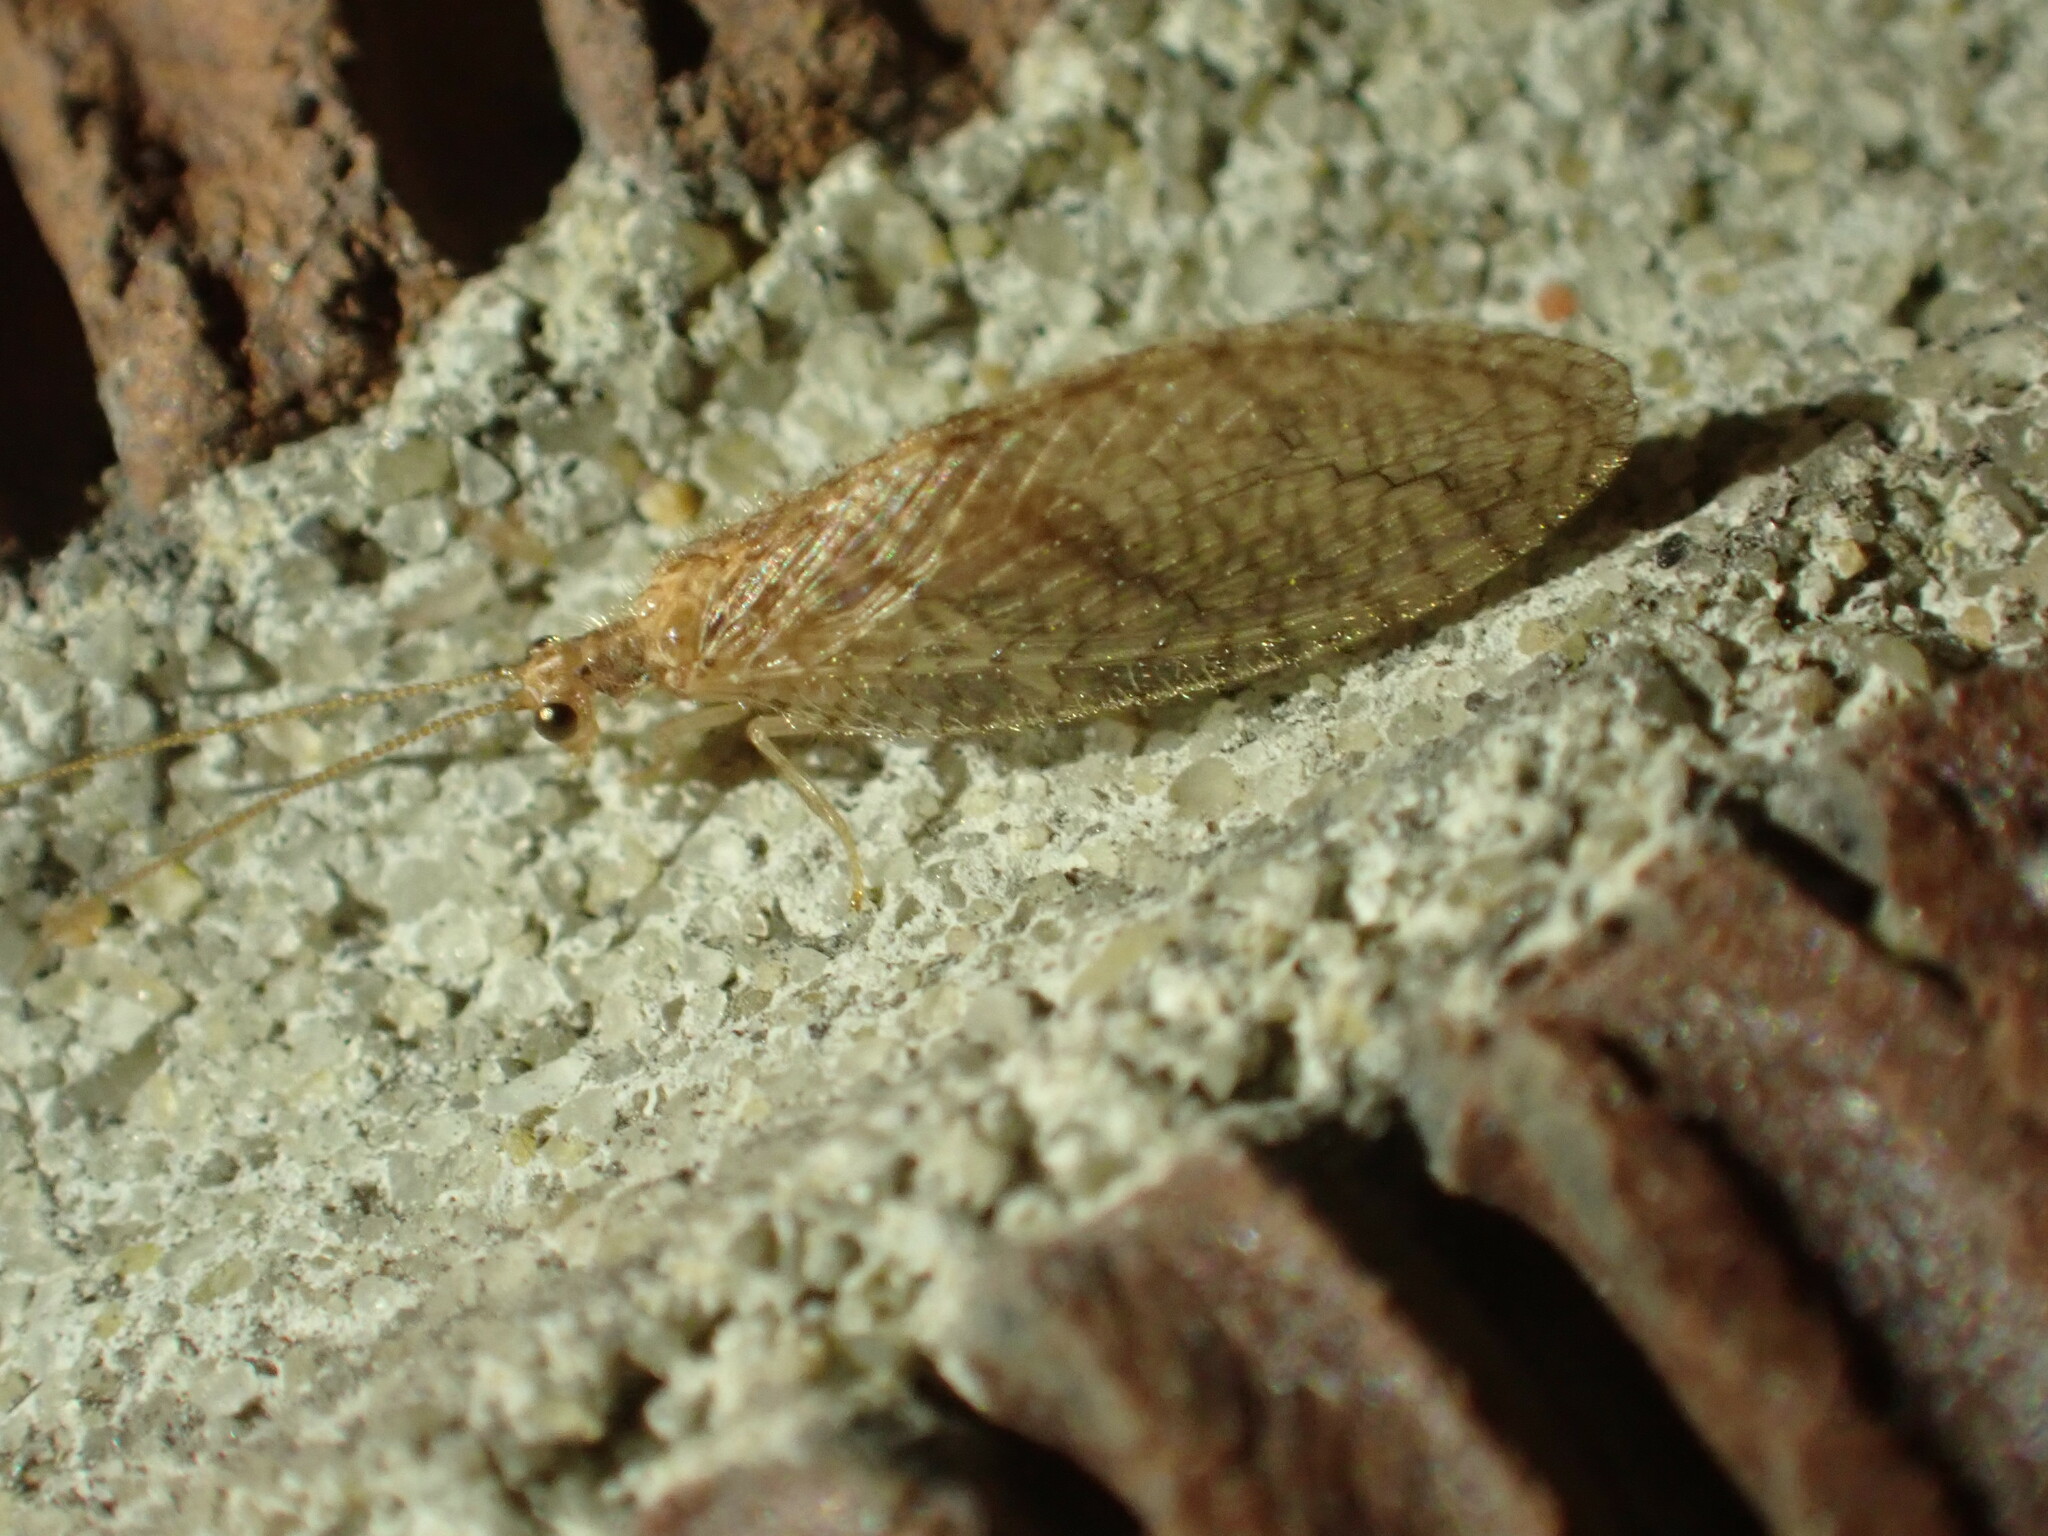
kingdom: Animalia
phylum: Arthropoda
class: Insecta
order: Neuroptera
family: Hemerobiidae
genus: Micromus
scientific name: Micromus posticus
